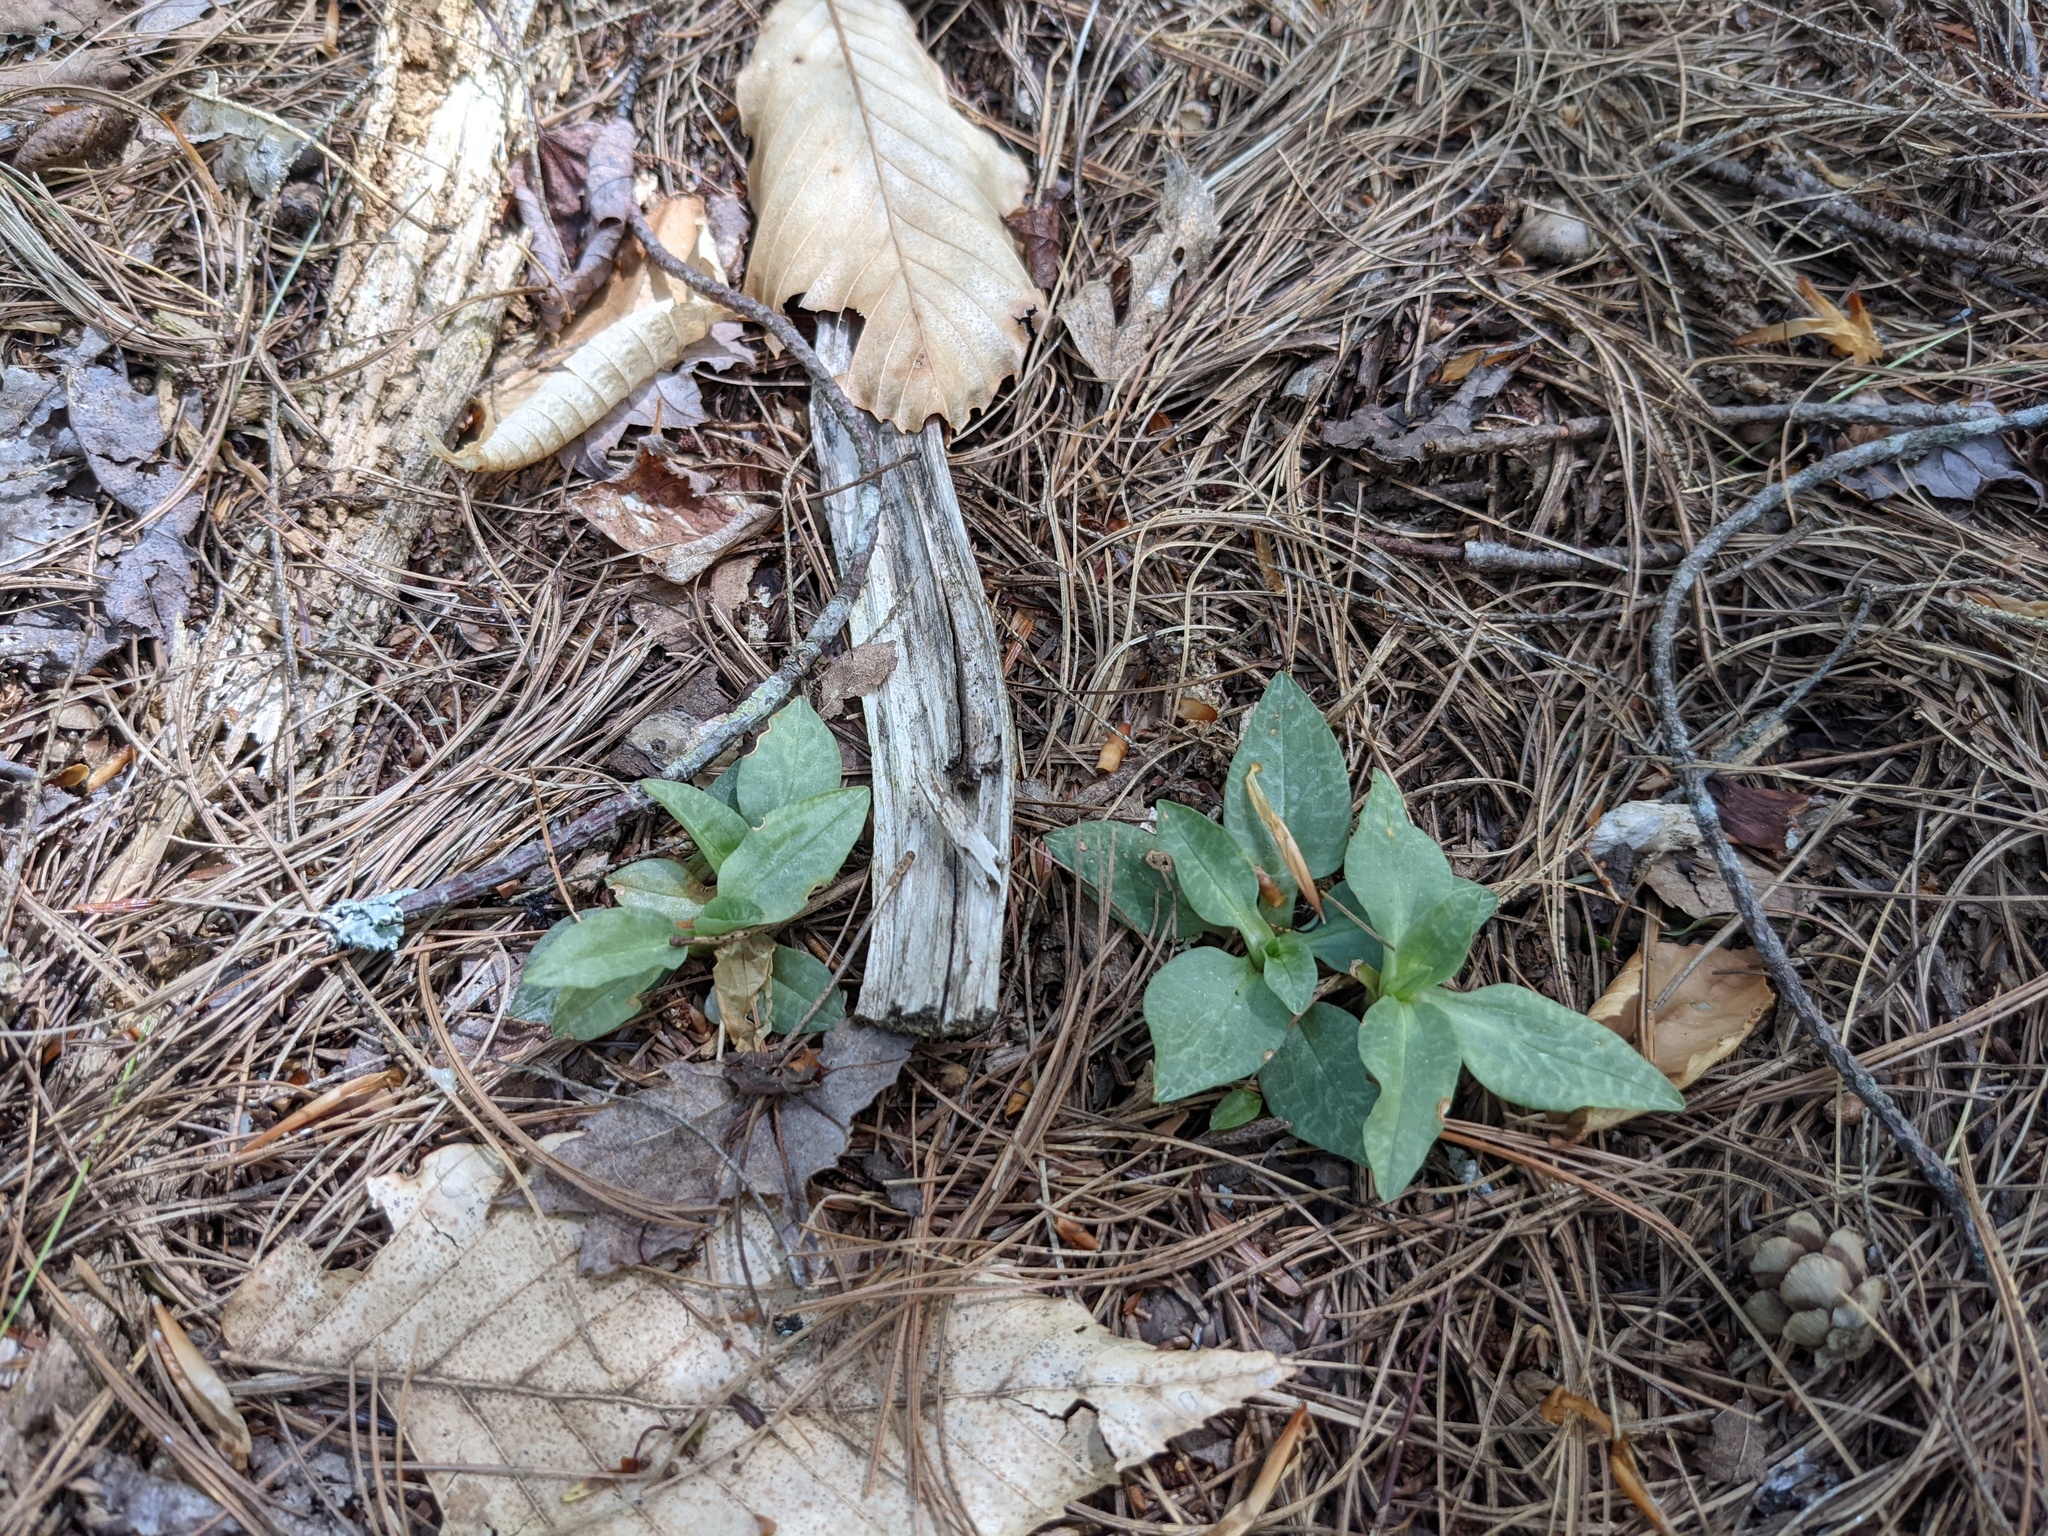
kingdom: Plantae
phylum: Tracheophyta
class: Liliopsida
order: Asparagales
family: Orchidaceae
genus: Goodyera
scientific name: Goodyera tesselata
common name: Checkered rattlesnake-plantain
